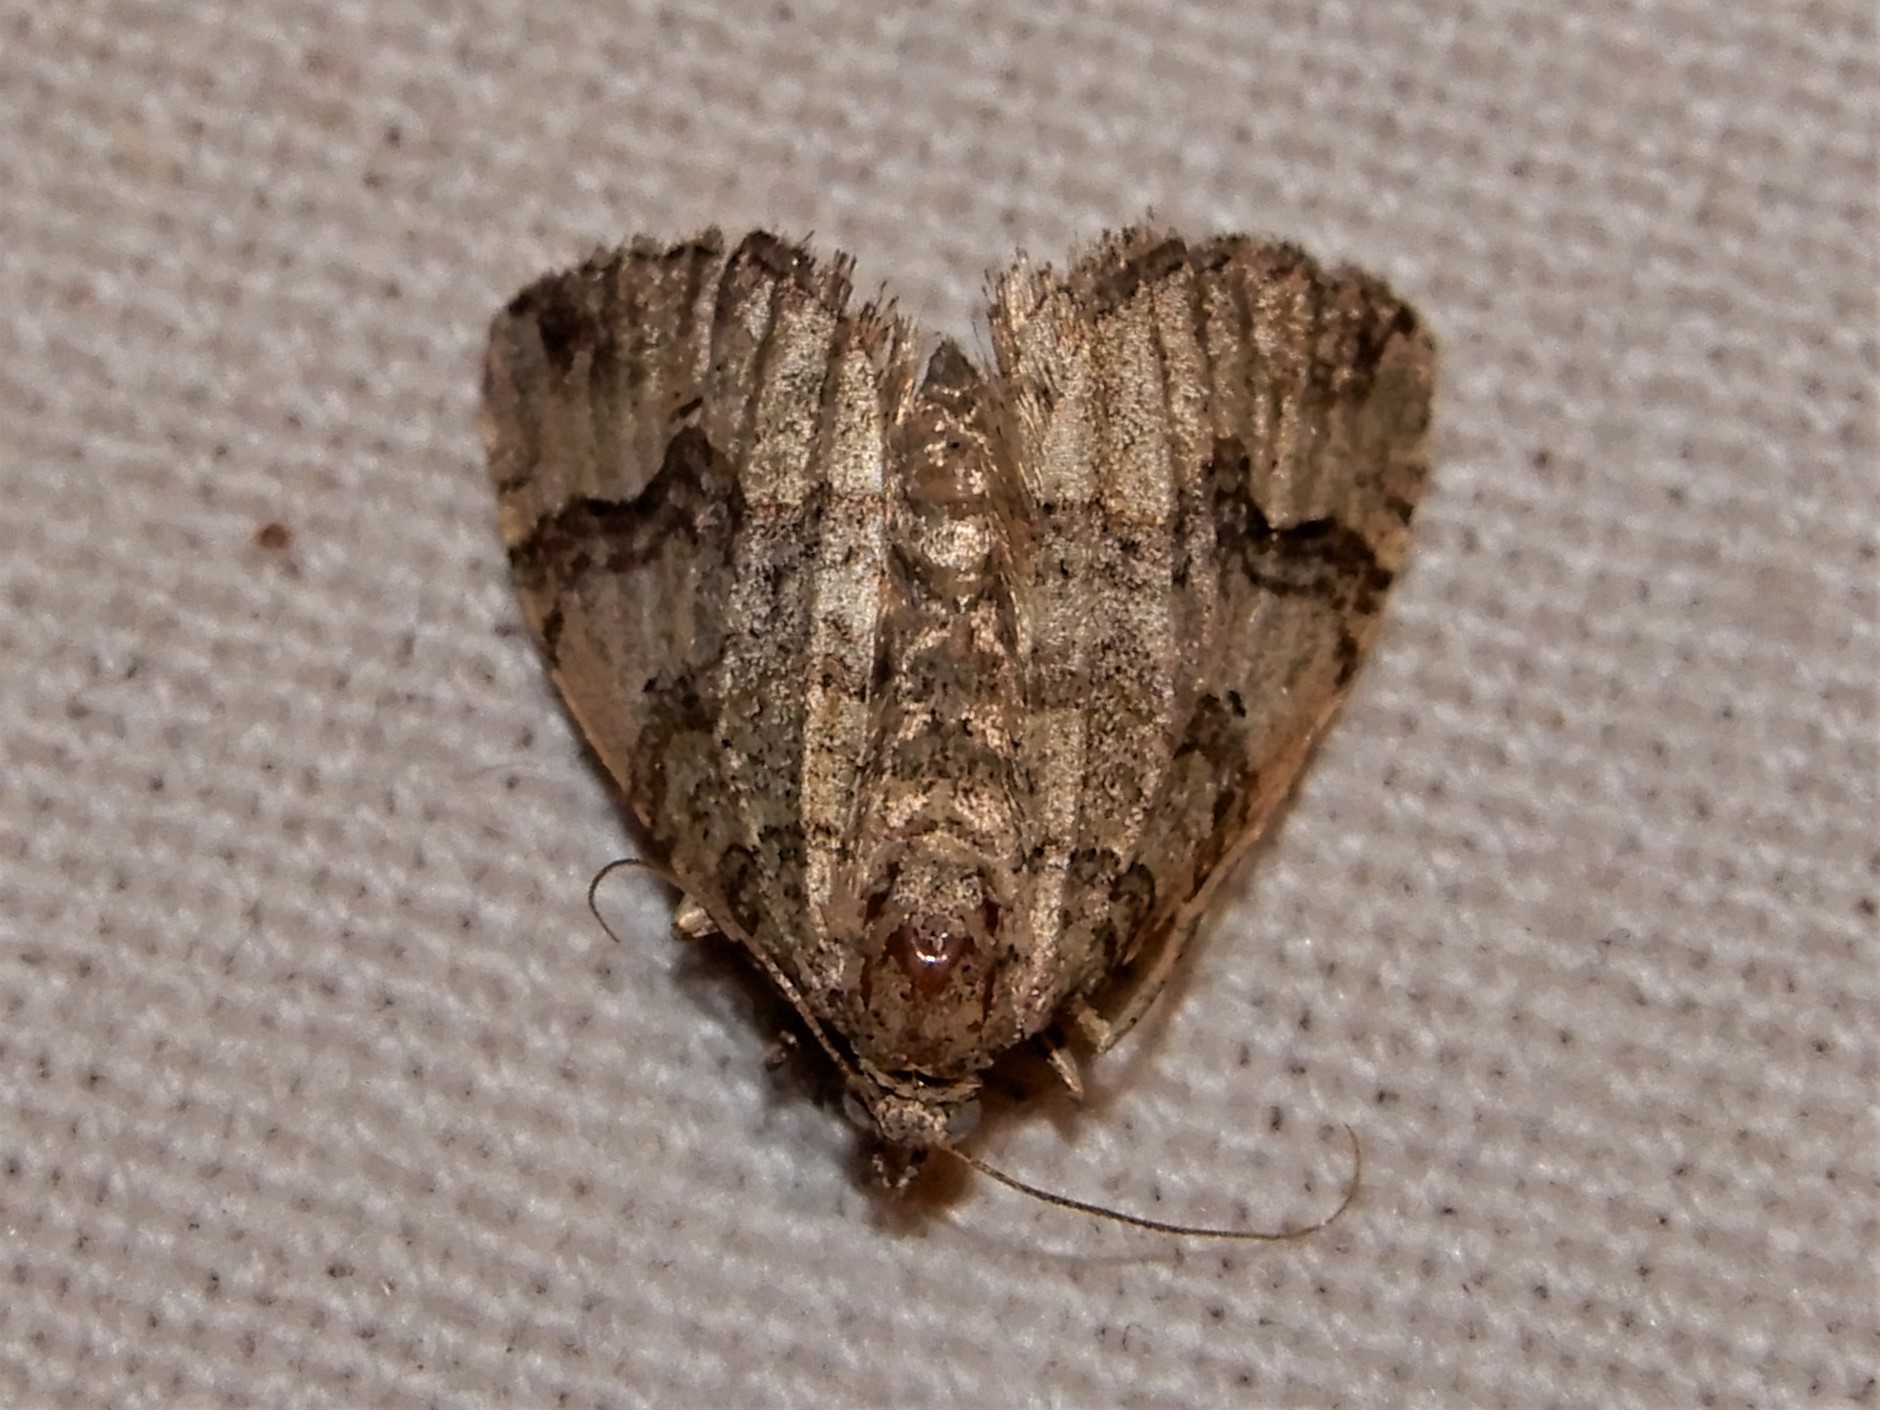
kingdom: Animalia
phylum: Arthropoda
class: Insecta
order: Lepidoptera
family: Geometridae
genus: Epyaxa
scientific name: Epyaxa rosearia
